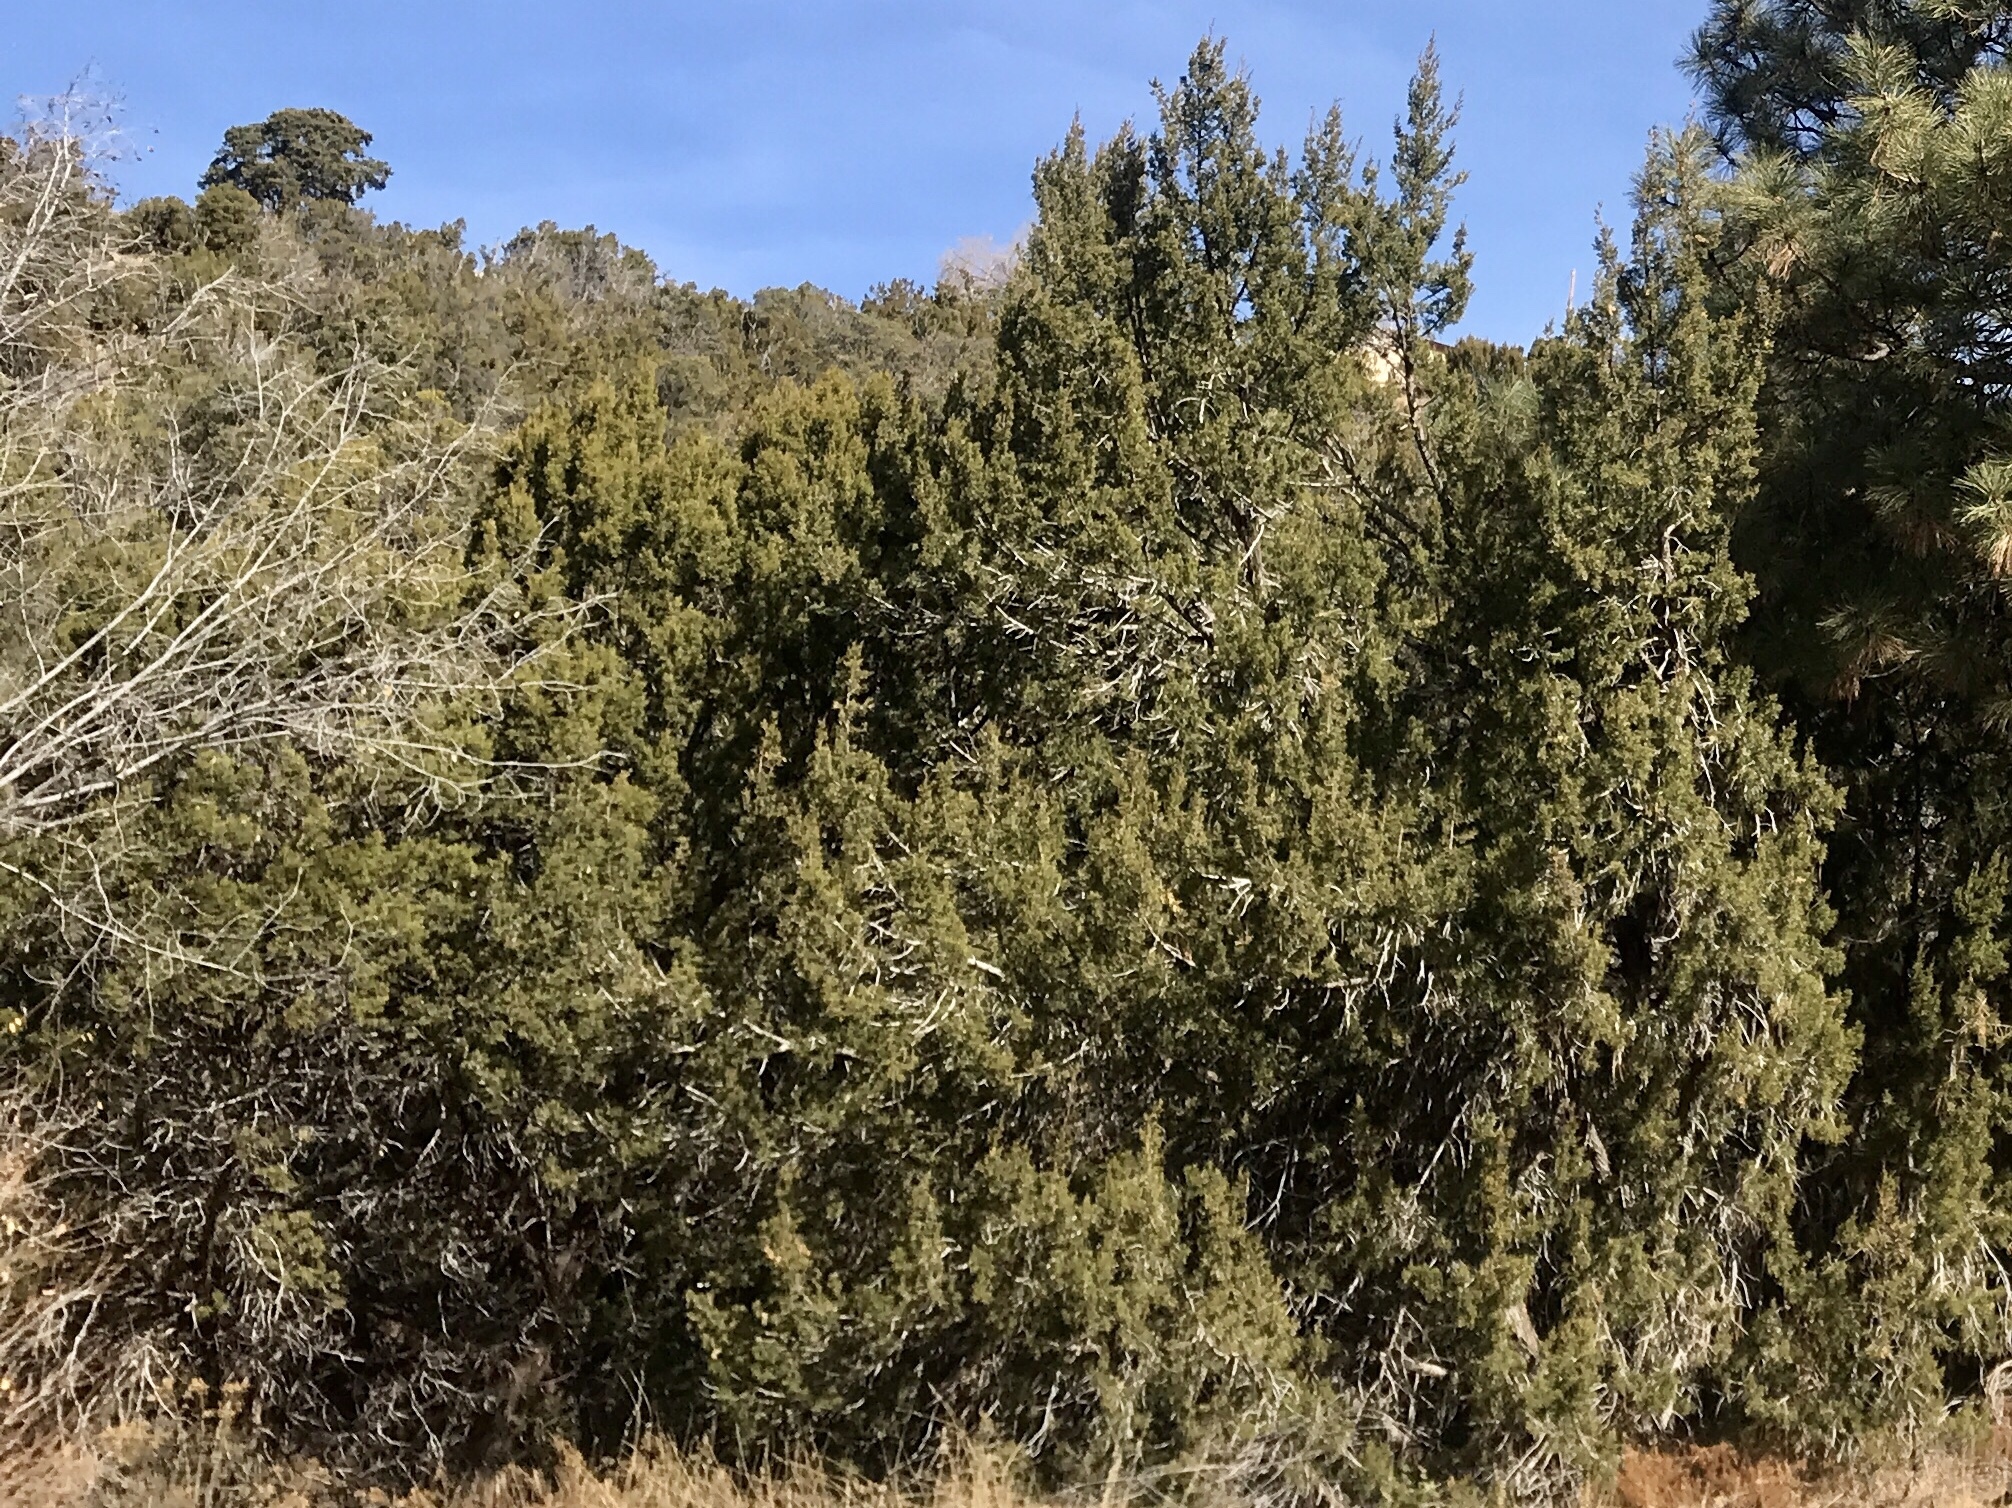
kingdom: Plantae
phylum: Tracheophyta
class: Pinopsida
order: Pinales
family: Cupressaceae
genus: Juniperus
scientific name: Juniperus monosperma
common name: One-seed juniper
